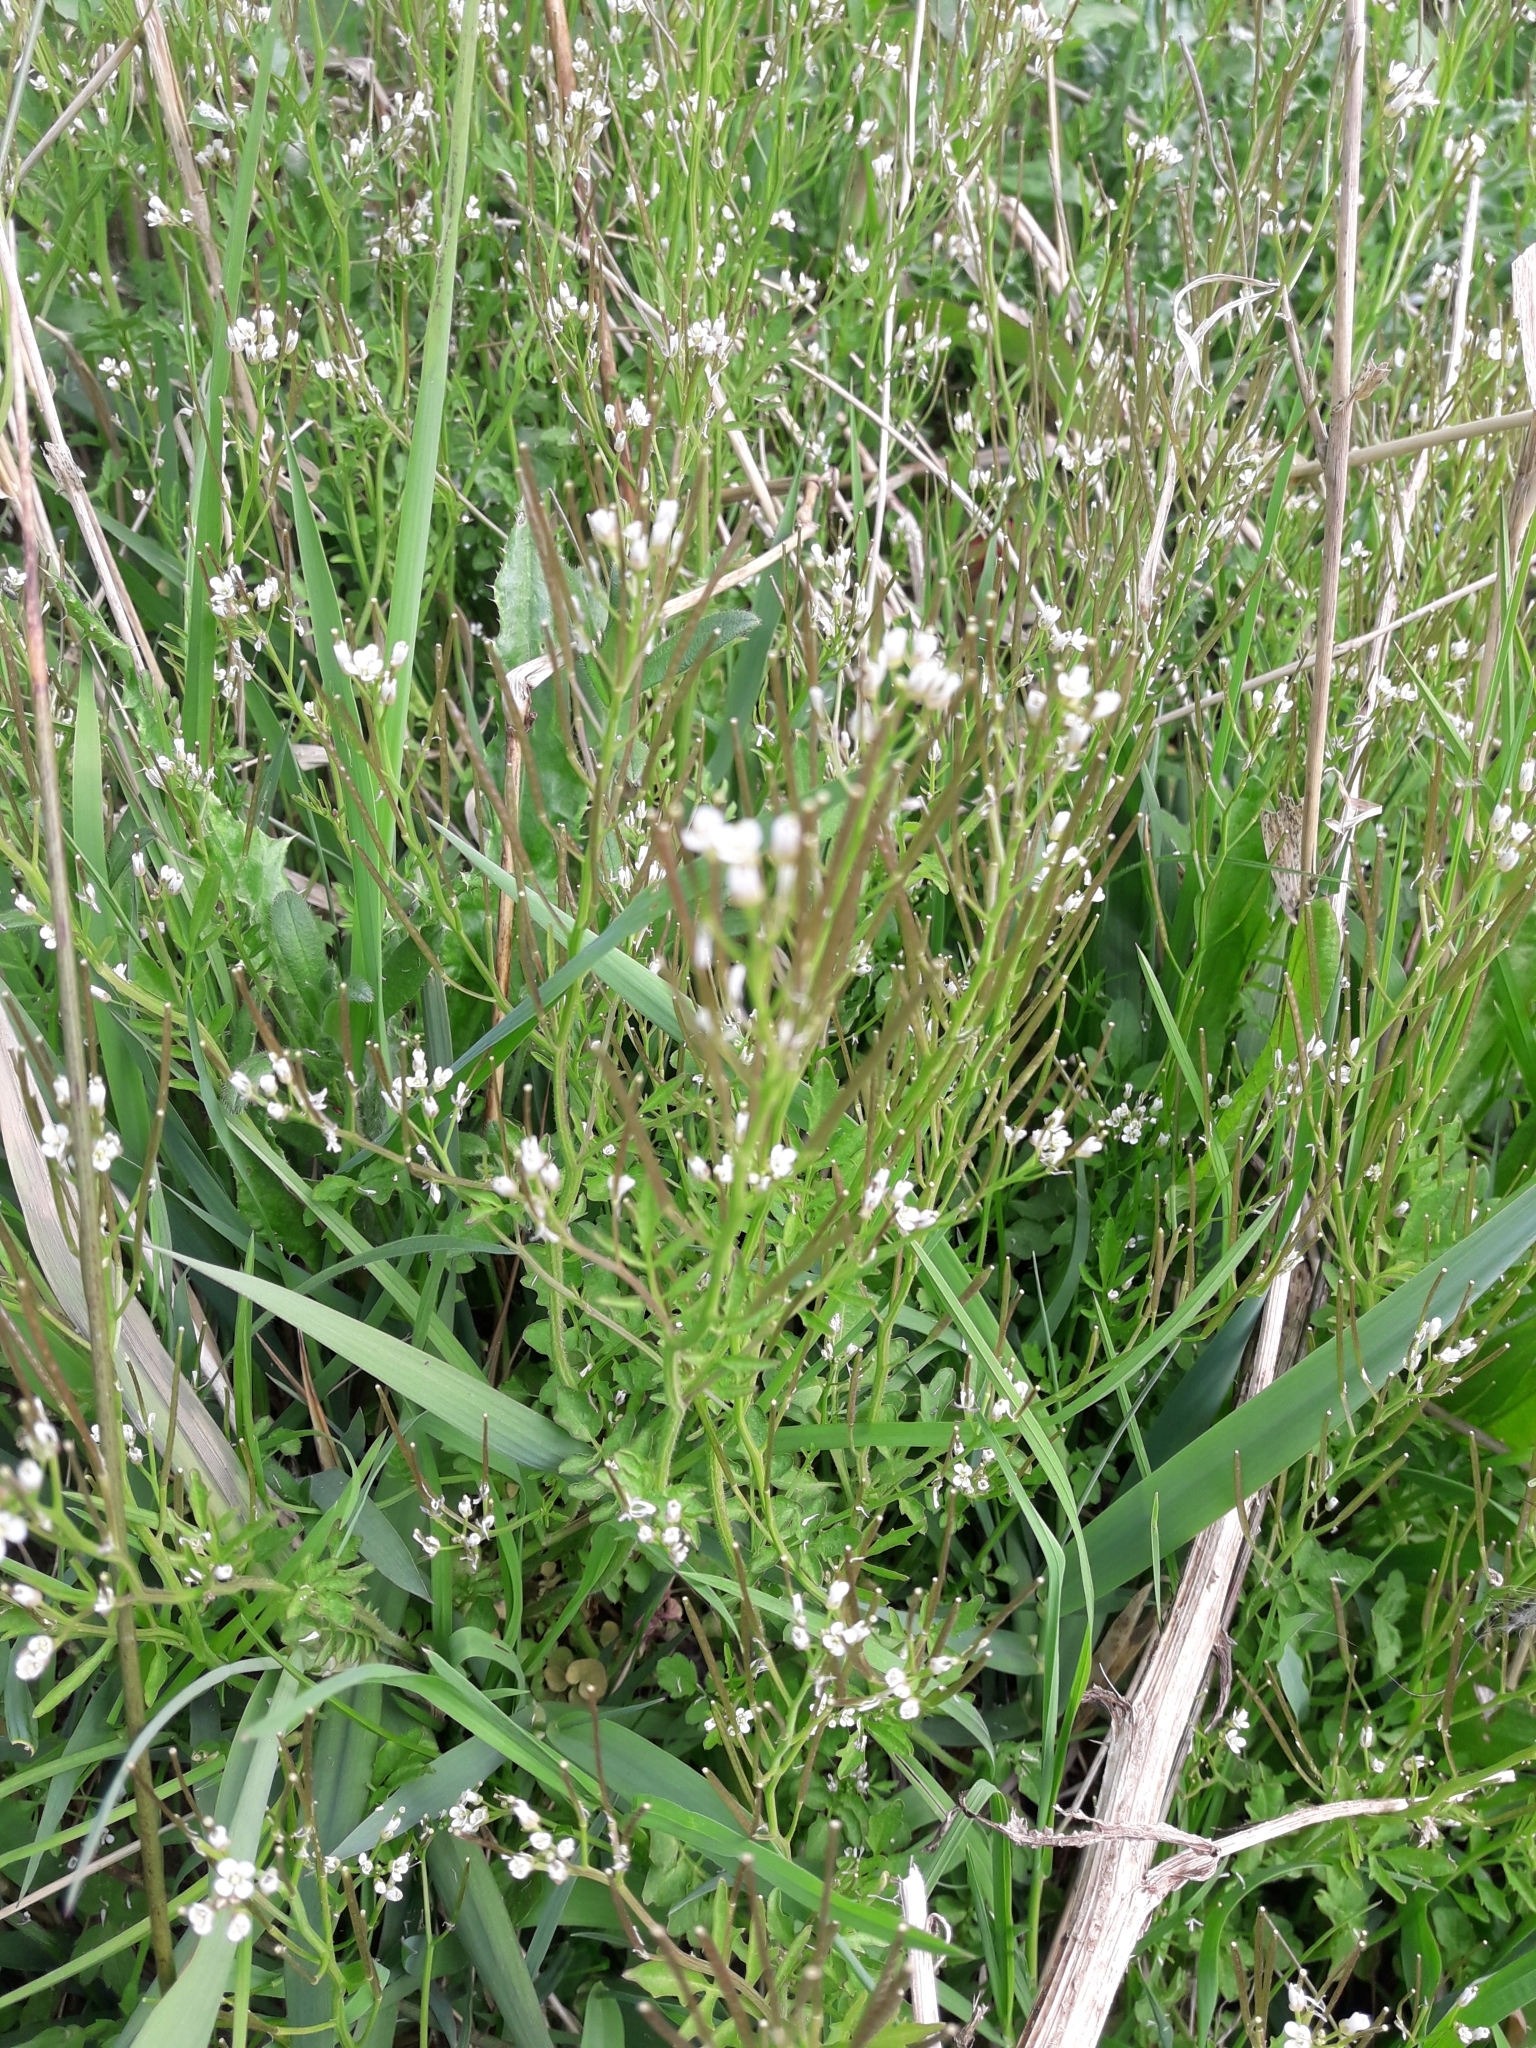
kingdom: Plantae
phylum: Tracheophyta
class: Magnoliopsida
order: Brassicales
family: Brassicaceae
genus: Cardamine
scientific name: Cardamine flexuosa
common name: Woodland bittercress
